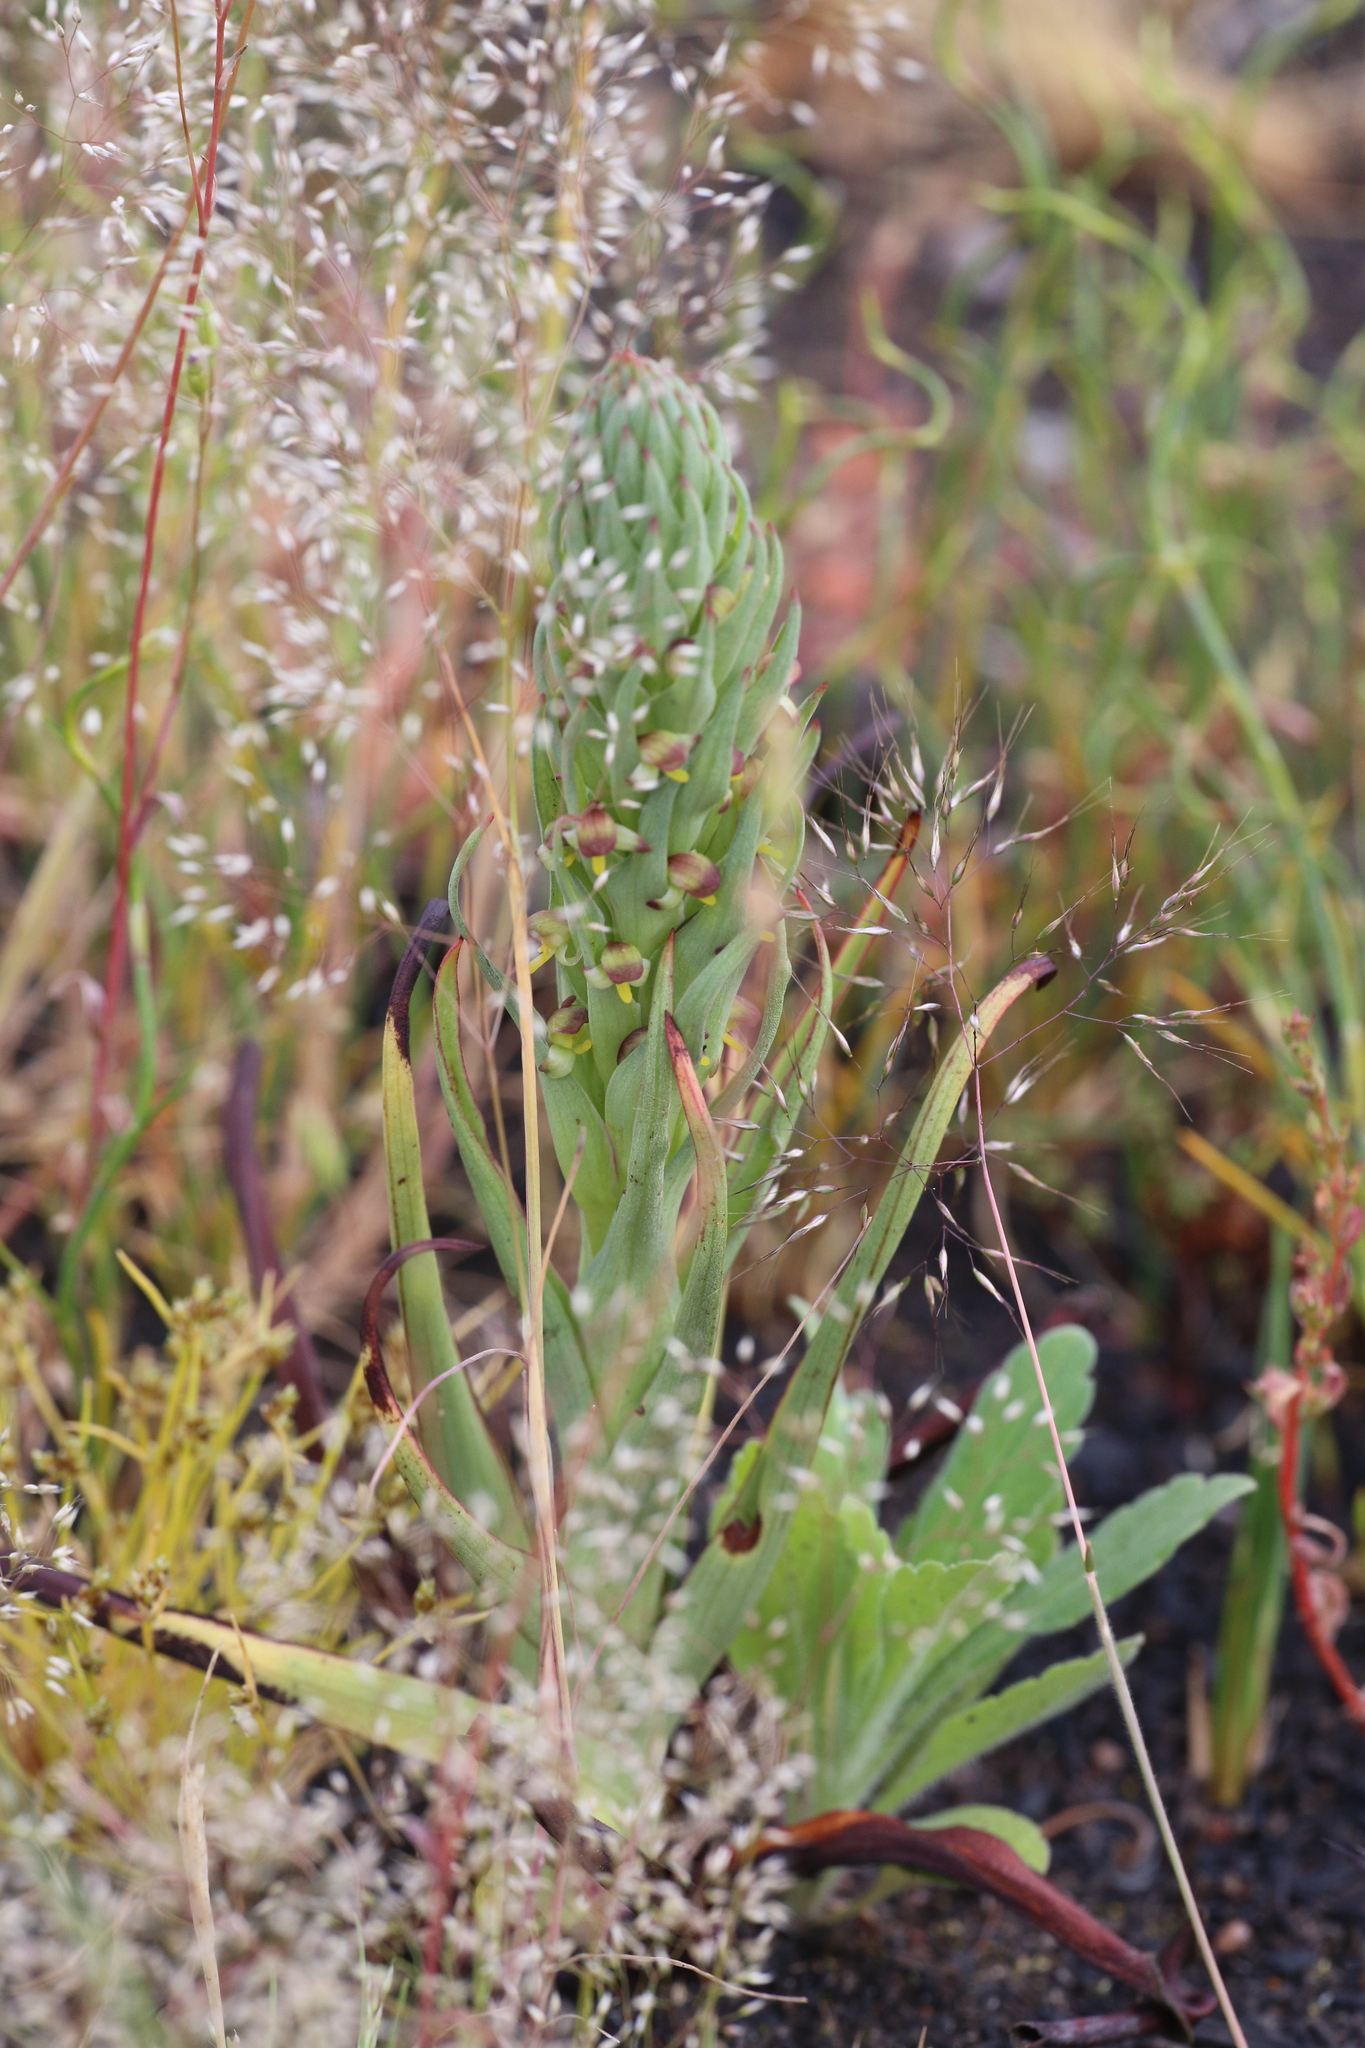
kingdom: Plantae
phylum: Tracheophyta
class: Liliopsida
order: Asparagales
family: Orchidaceae
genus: Disa
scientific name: Disa bracteata
